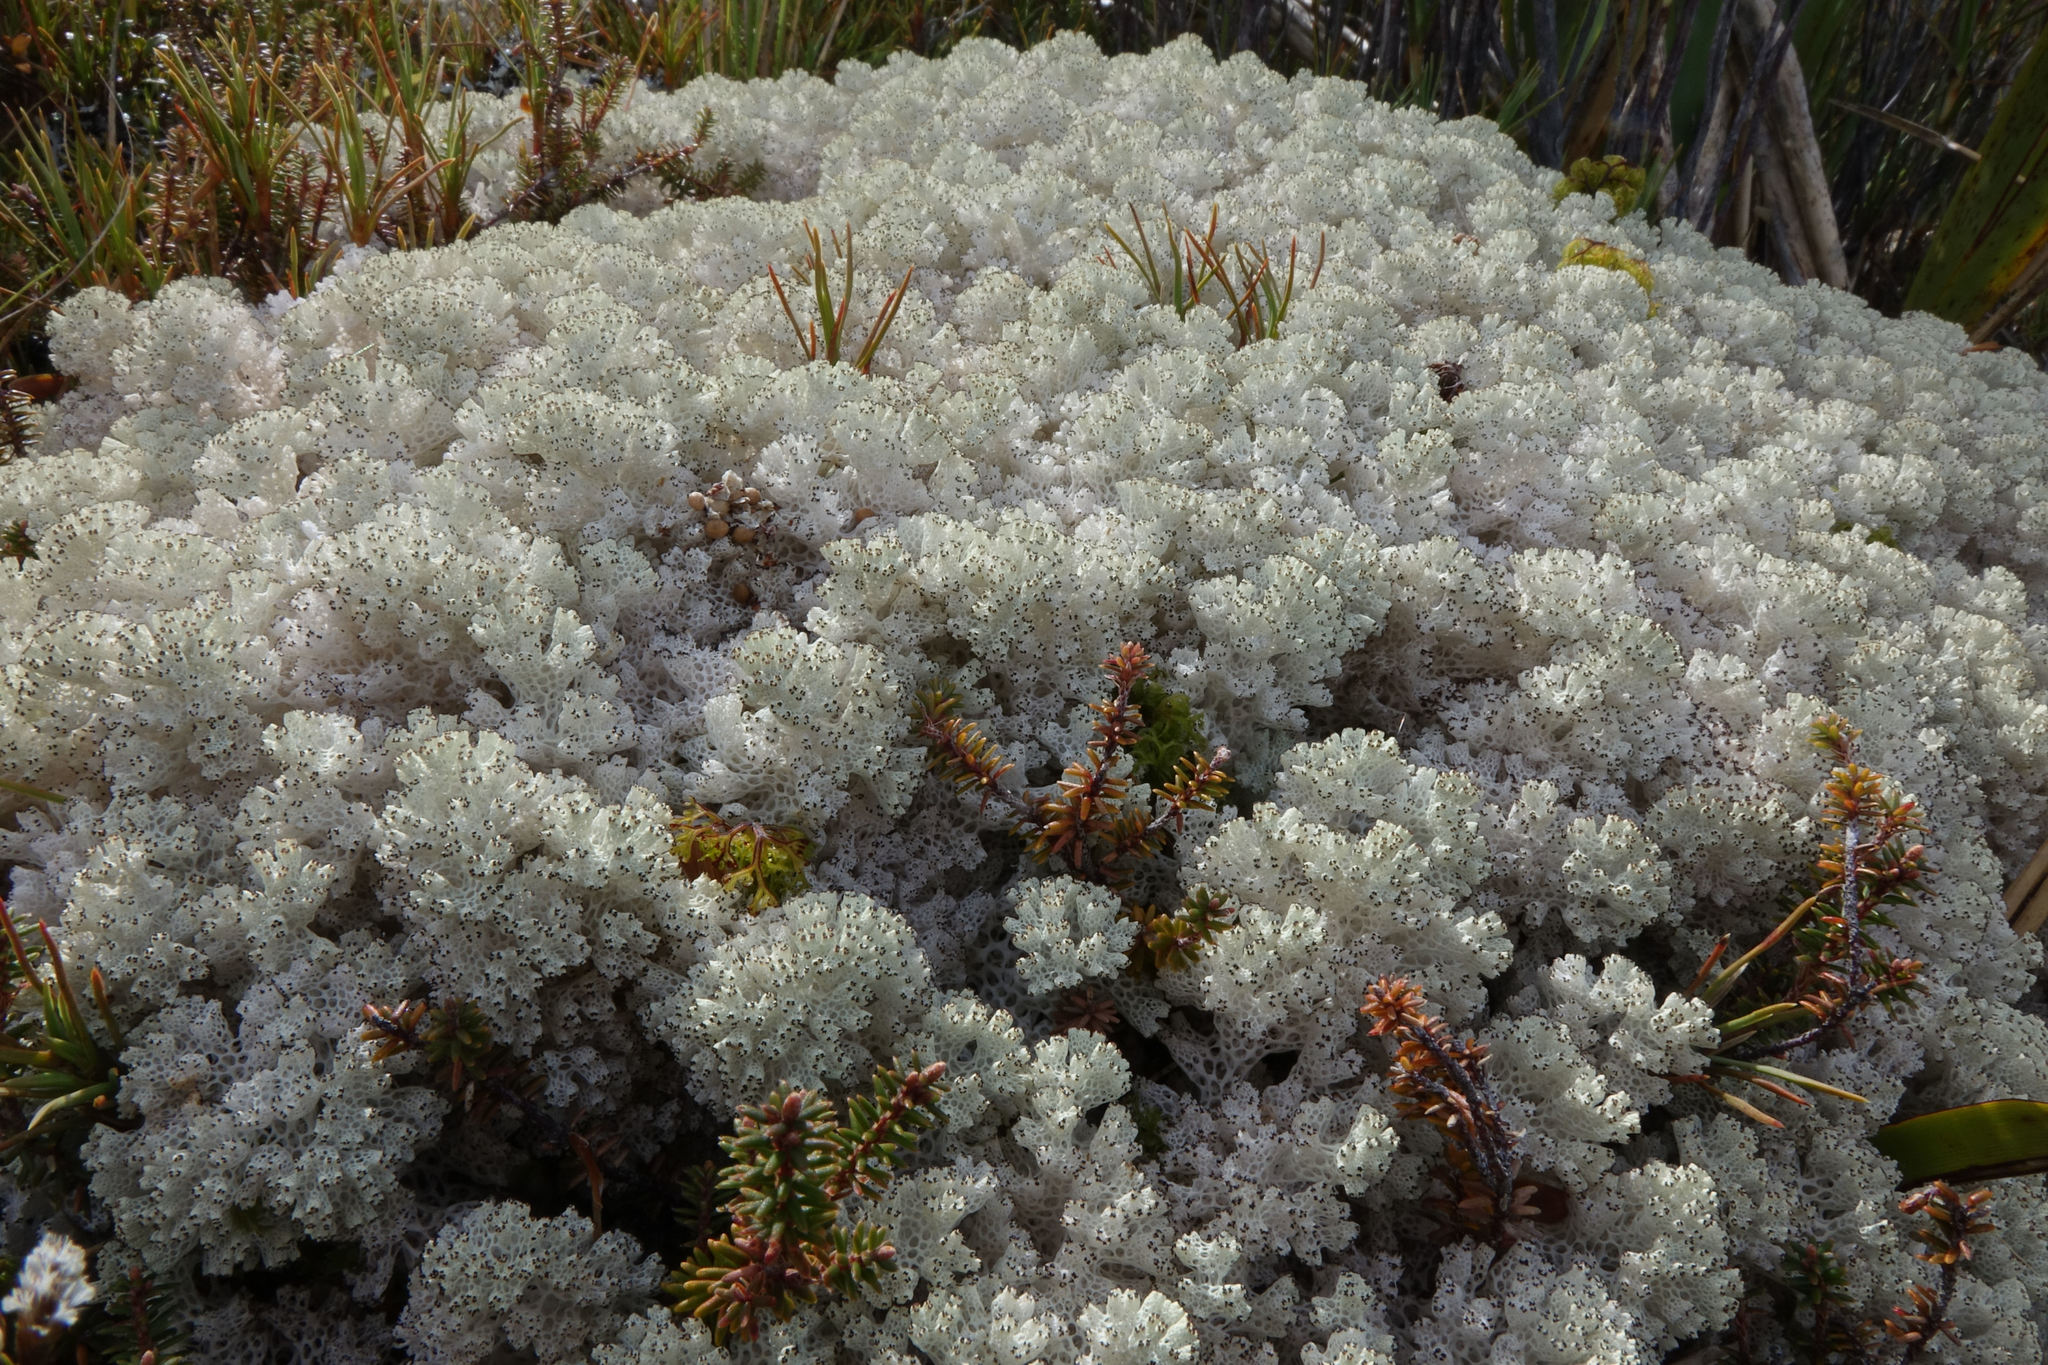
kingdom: Fungi
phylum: Ascomycota
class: Lecanoromycetes
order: Lecanorales
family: Cladoniaceae
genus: Pulchrocladia
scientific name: Pulchrocladia retipora
